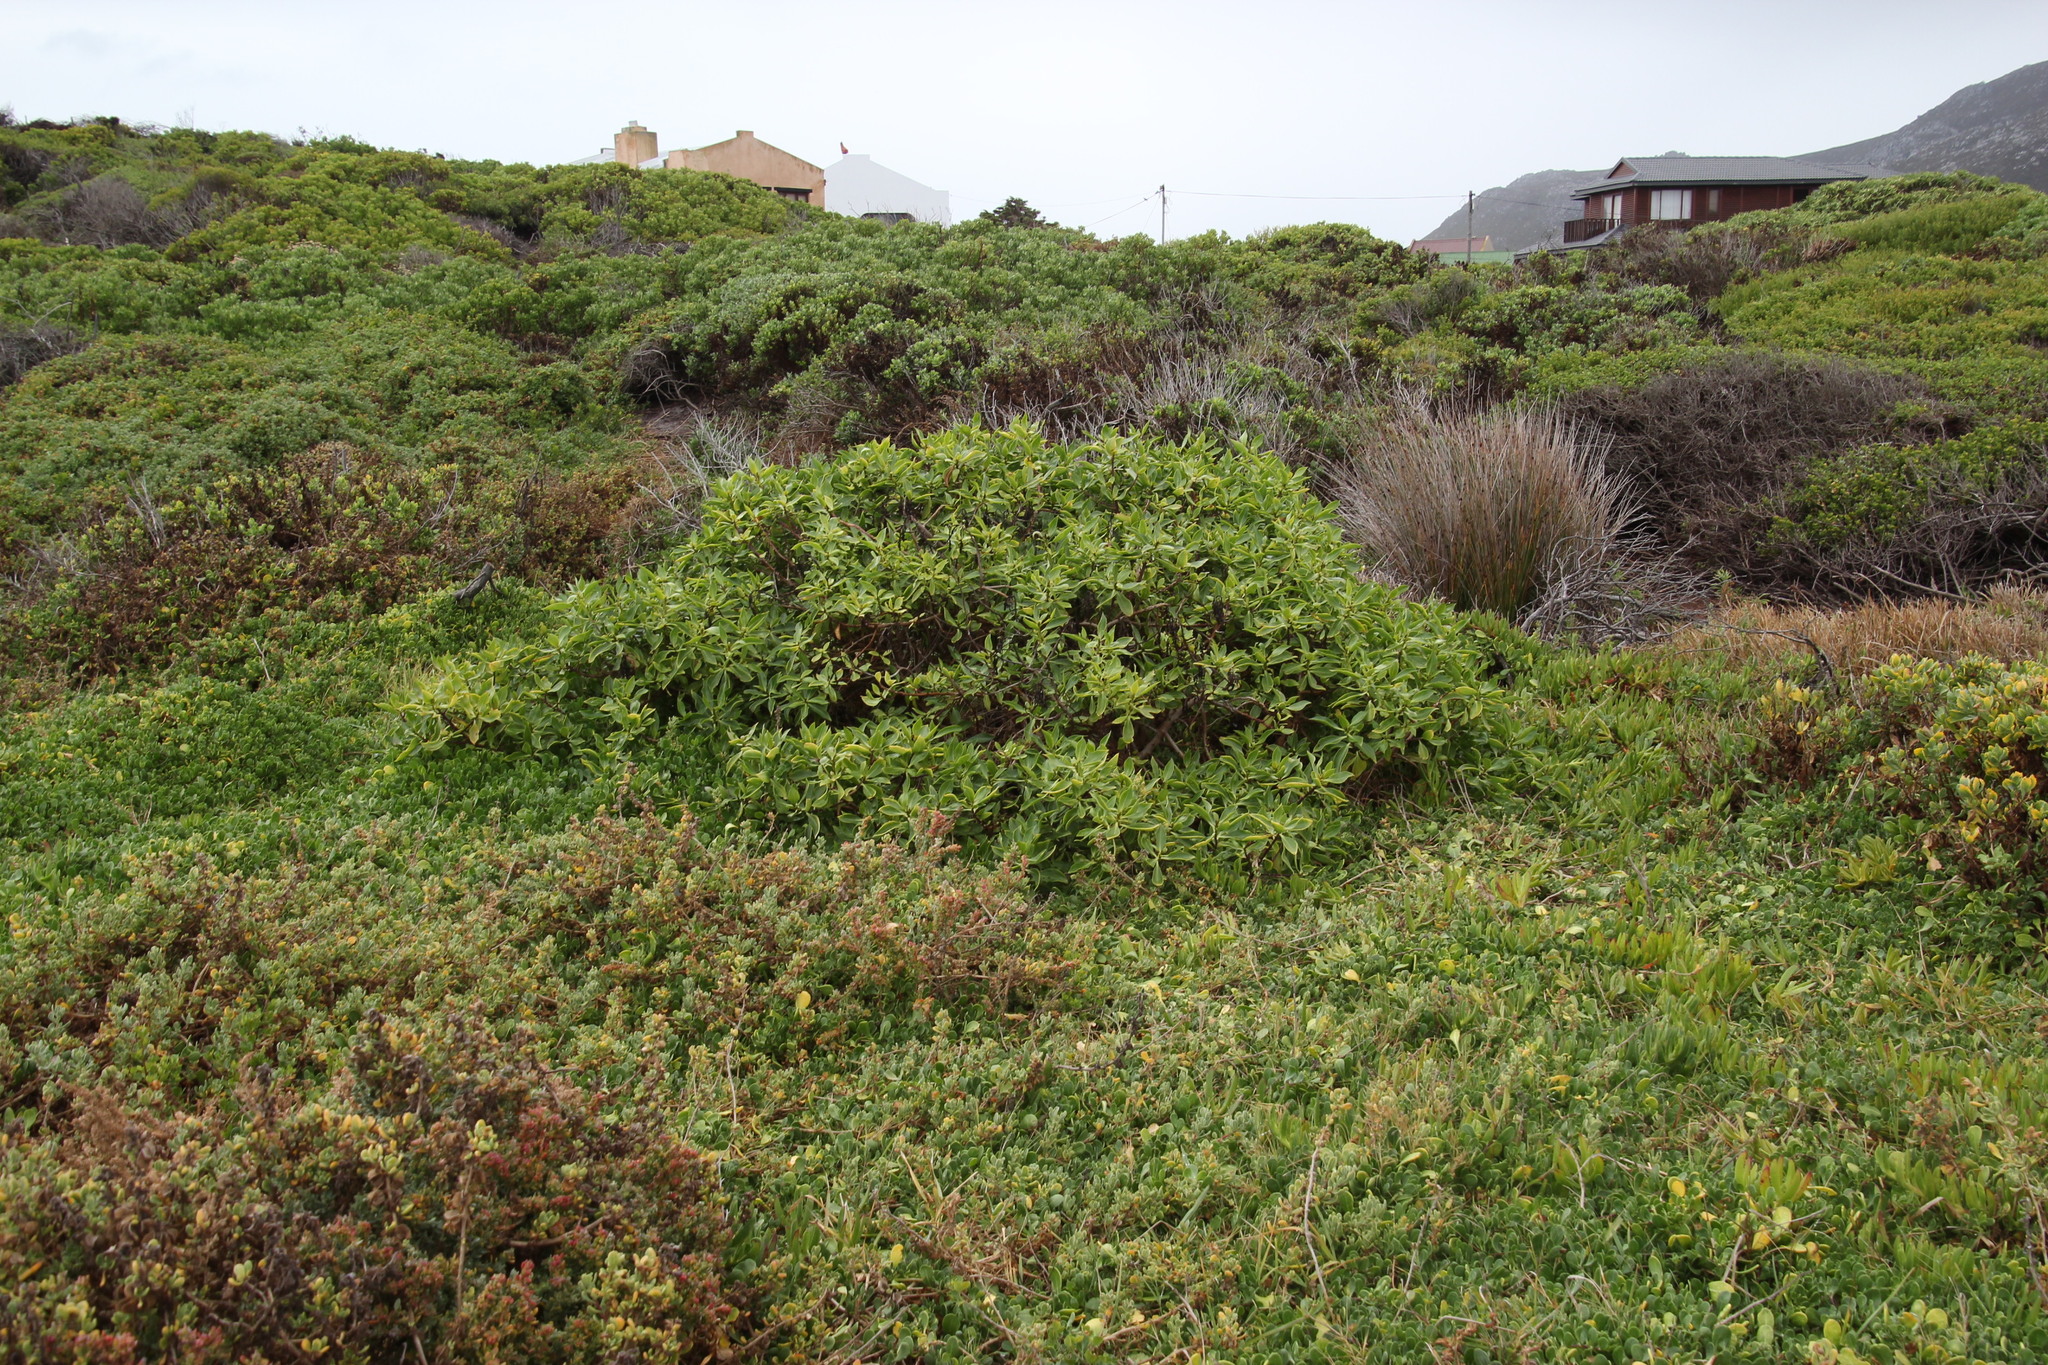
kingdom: Plantae
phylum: Tracheophyta
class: Magnoliopsida
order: Lamiales
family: Scrophulariaceae
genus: Myoporum
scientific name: Myoporum insulare
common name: Common boobialla
